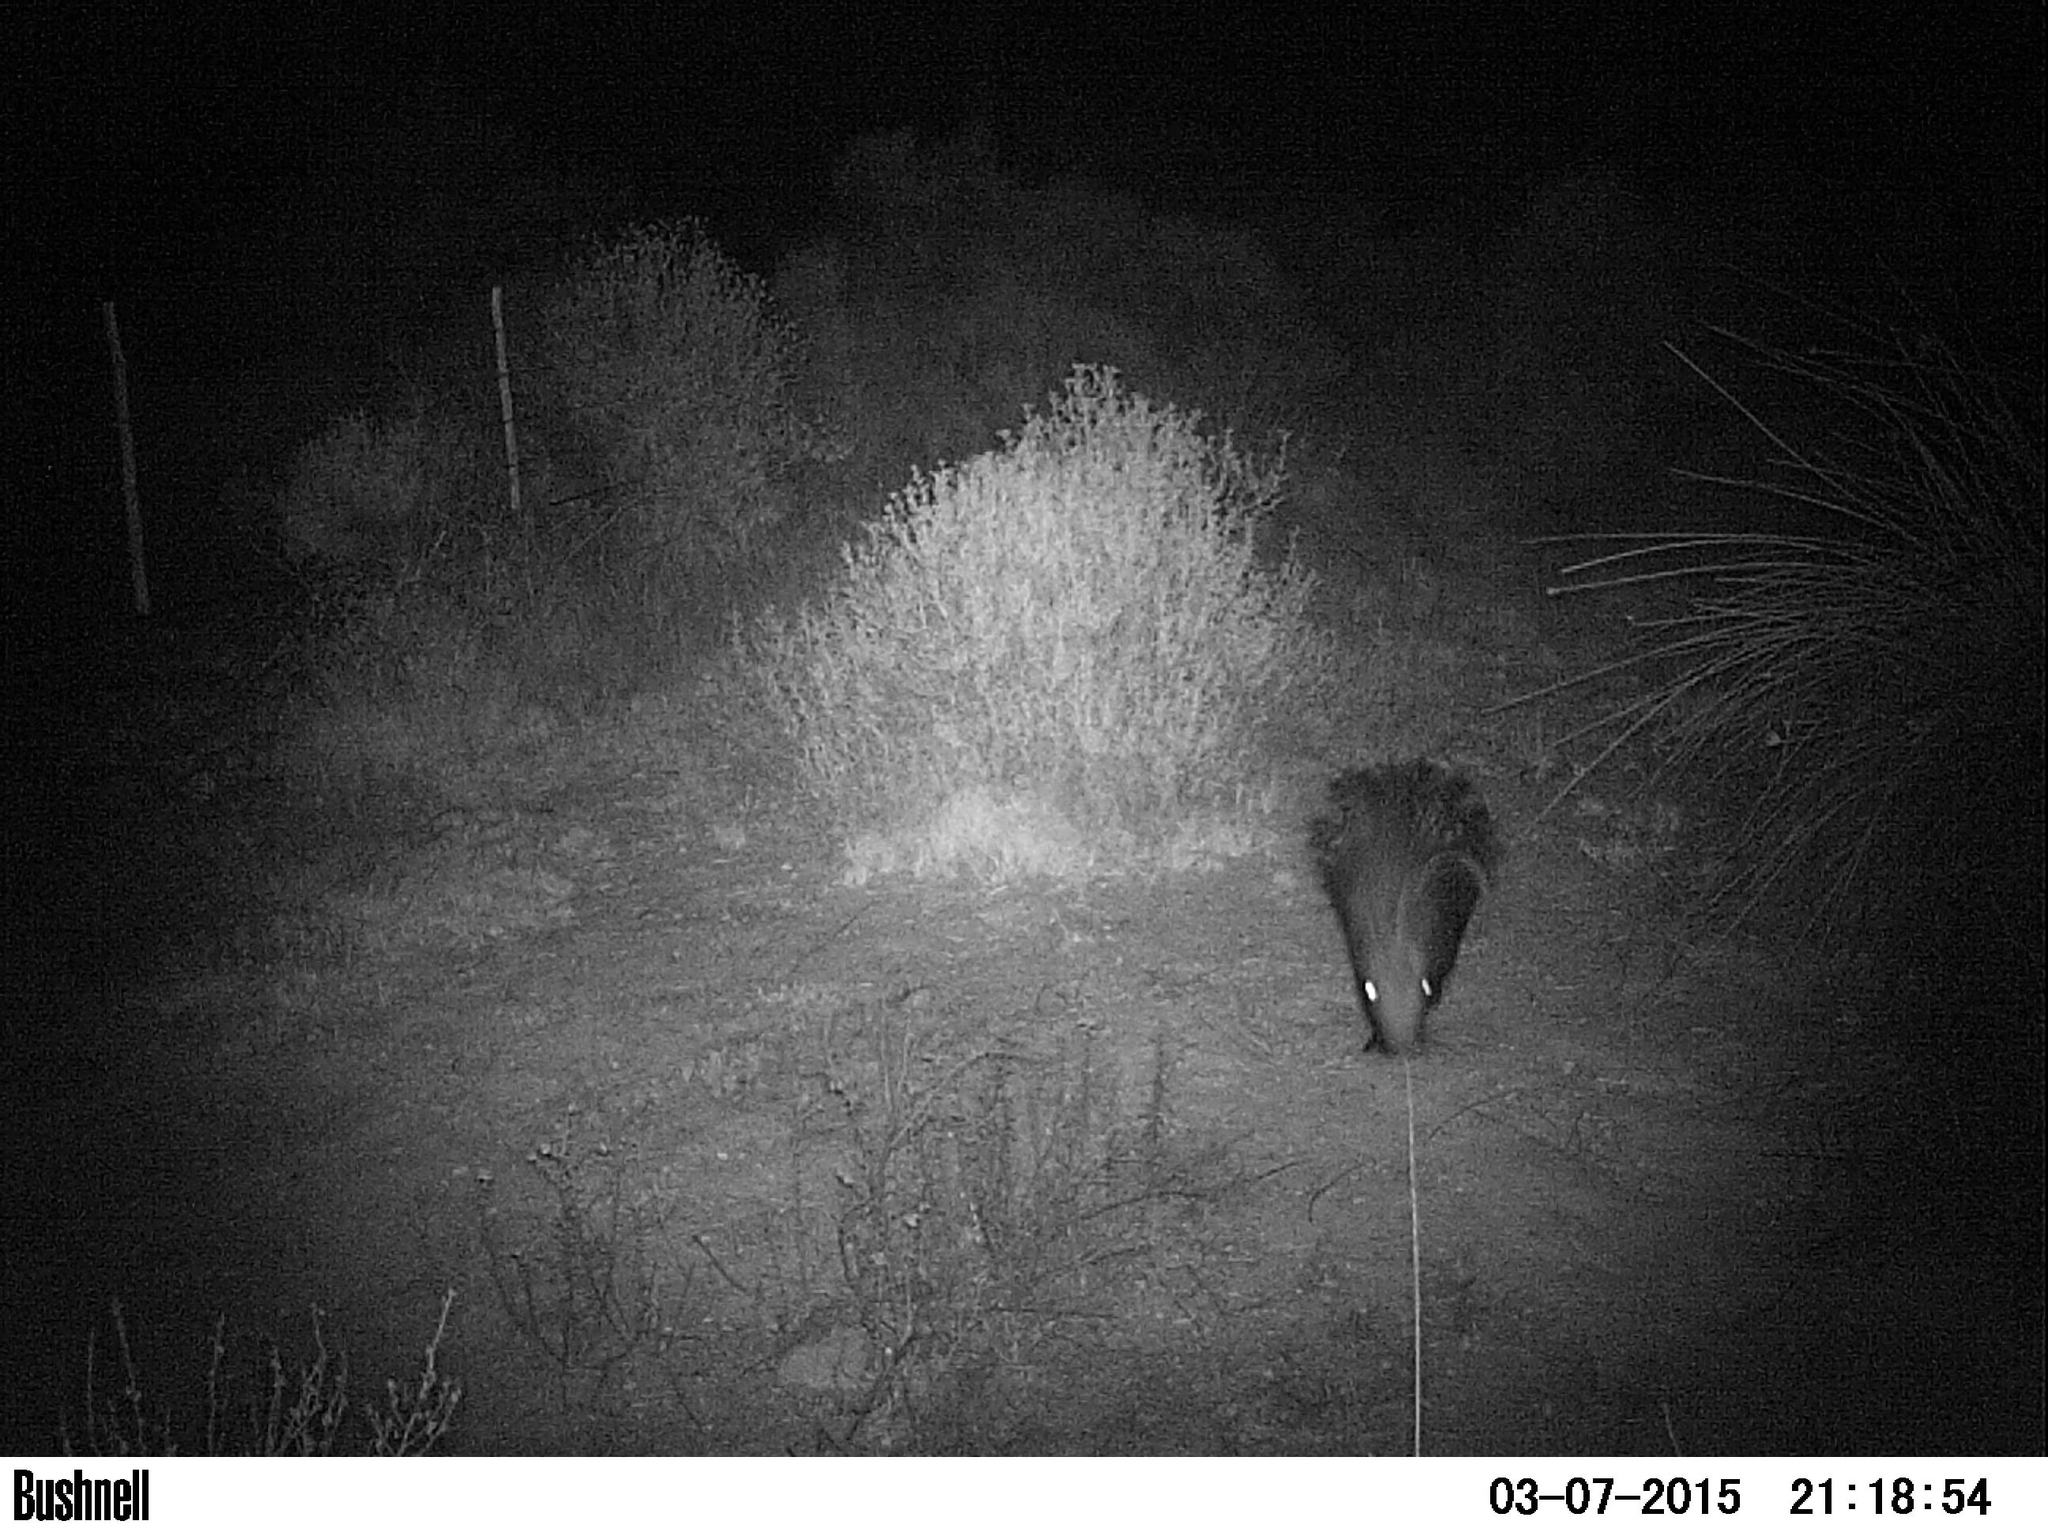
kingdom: Animalia
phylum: Chordata
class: Mammalia
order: Rodentia
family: Hystricidae
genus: Hystrix
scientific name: Hystrix africaeaustralis
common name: Cape porcupine
